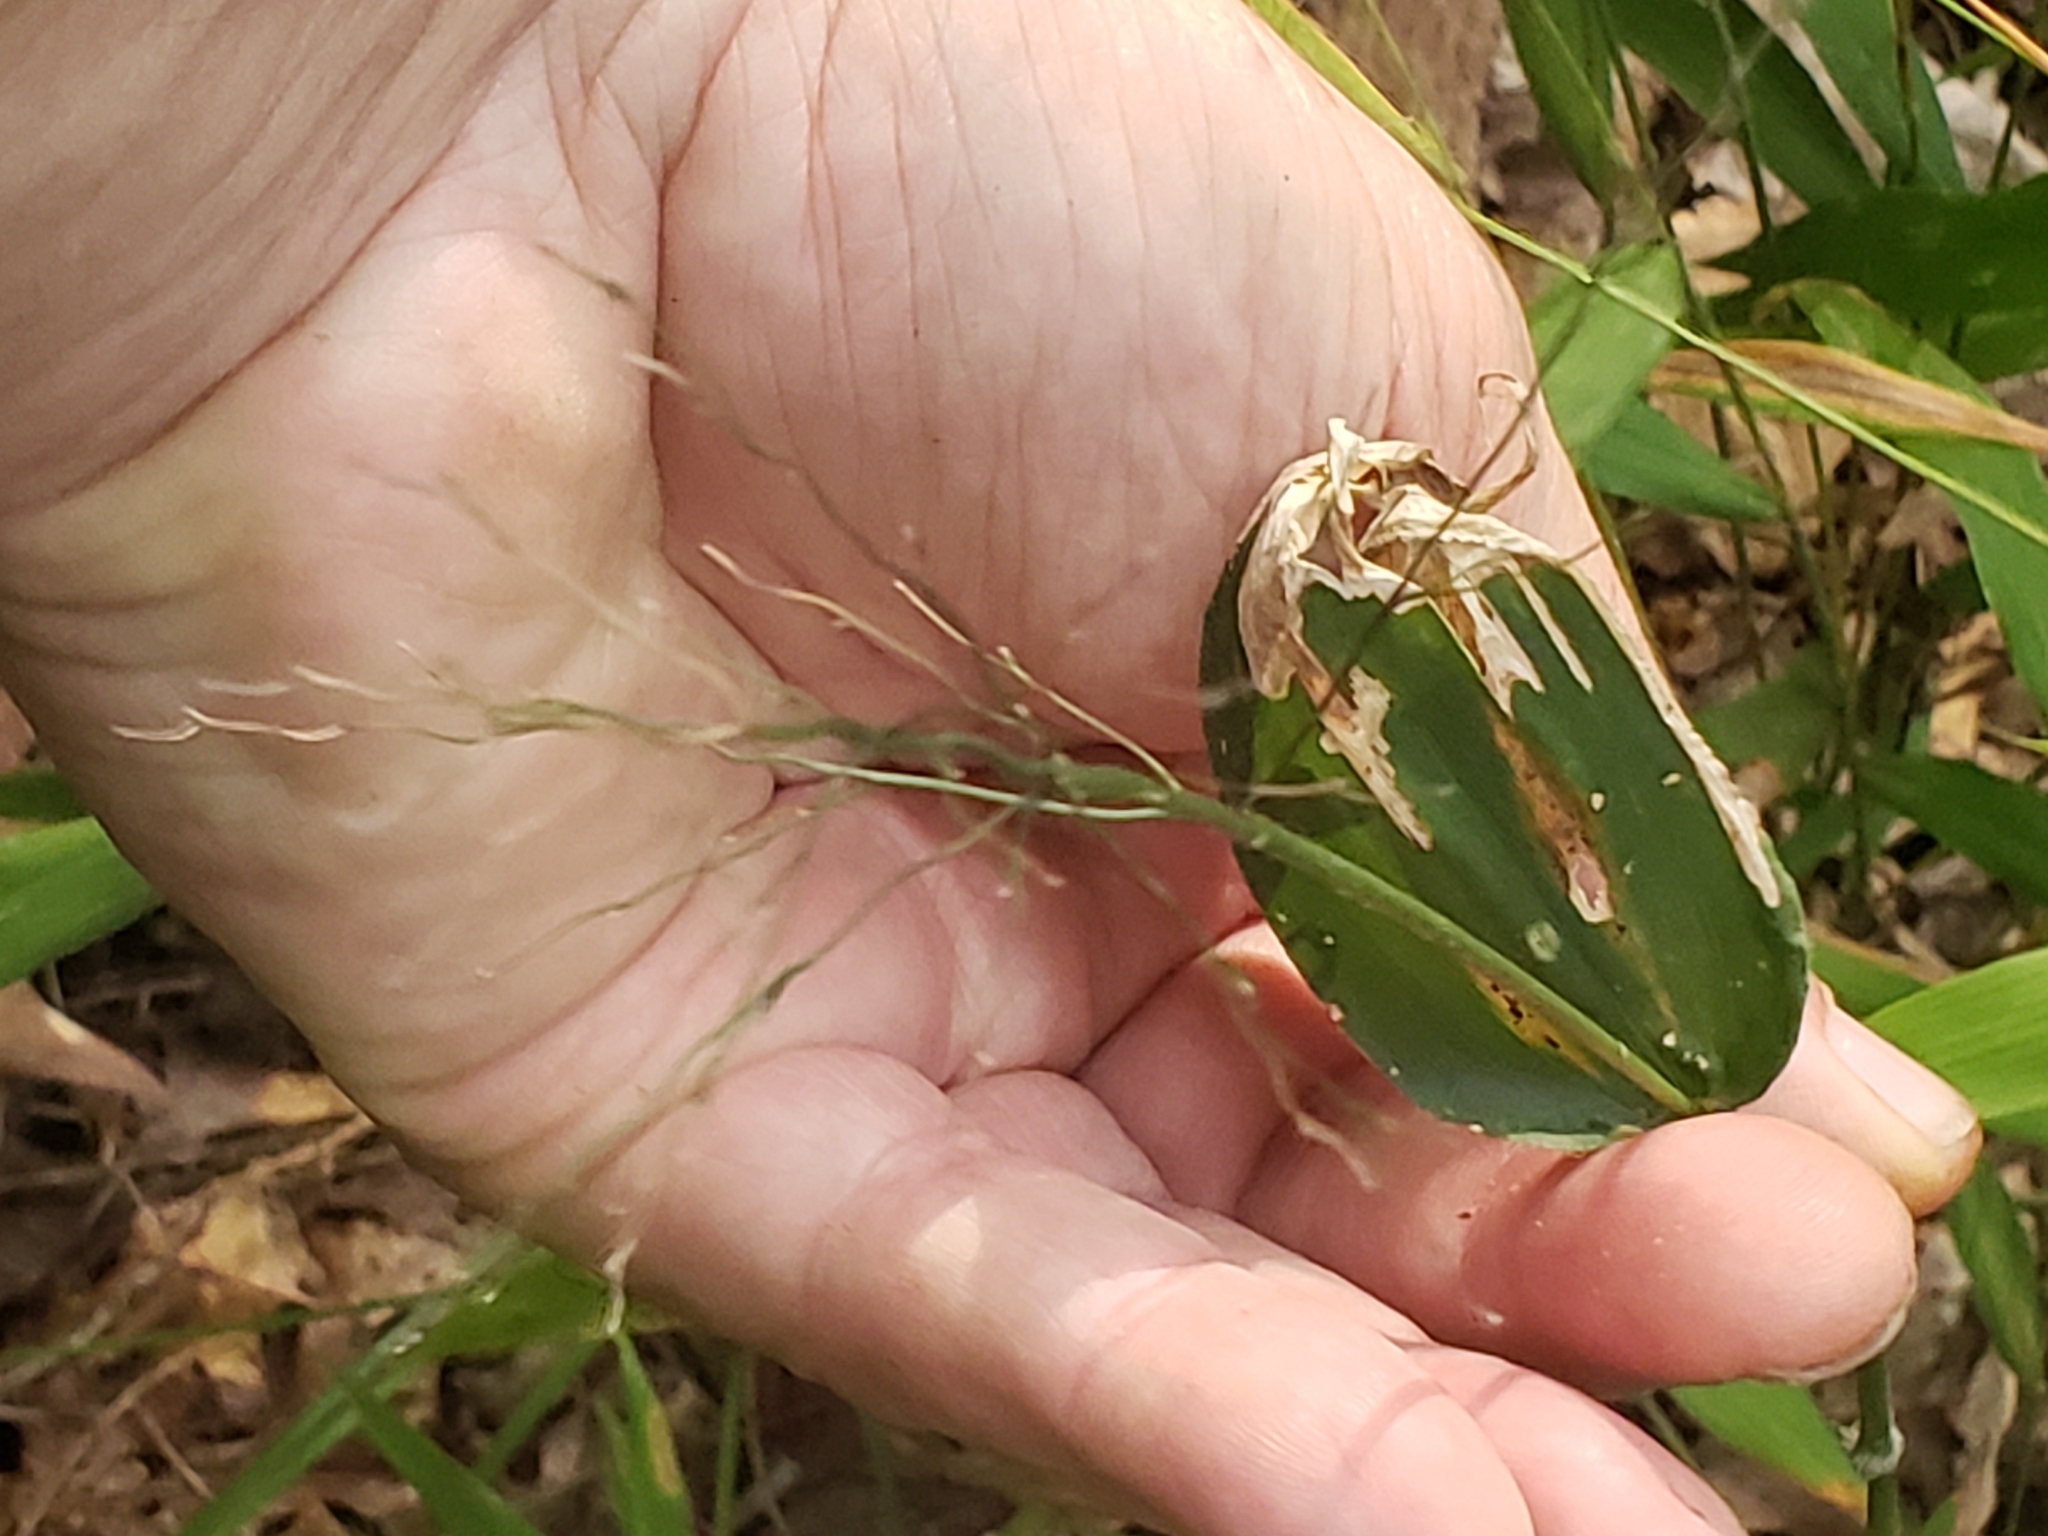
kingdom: Animalia
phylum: Arthropoda
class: Insecta
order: Diptera
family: Agromyzidae
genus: Cerodontha
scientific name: Cerodontha dorsalis
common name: Grass sheathminer fly
